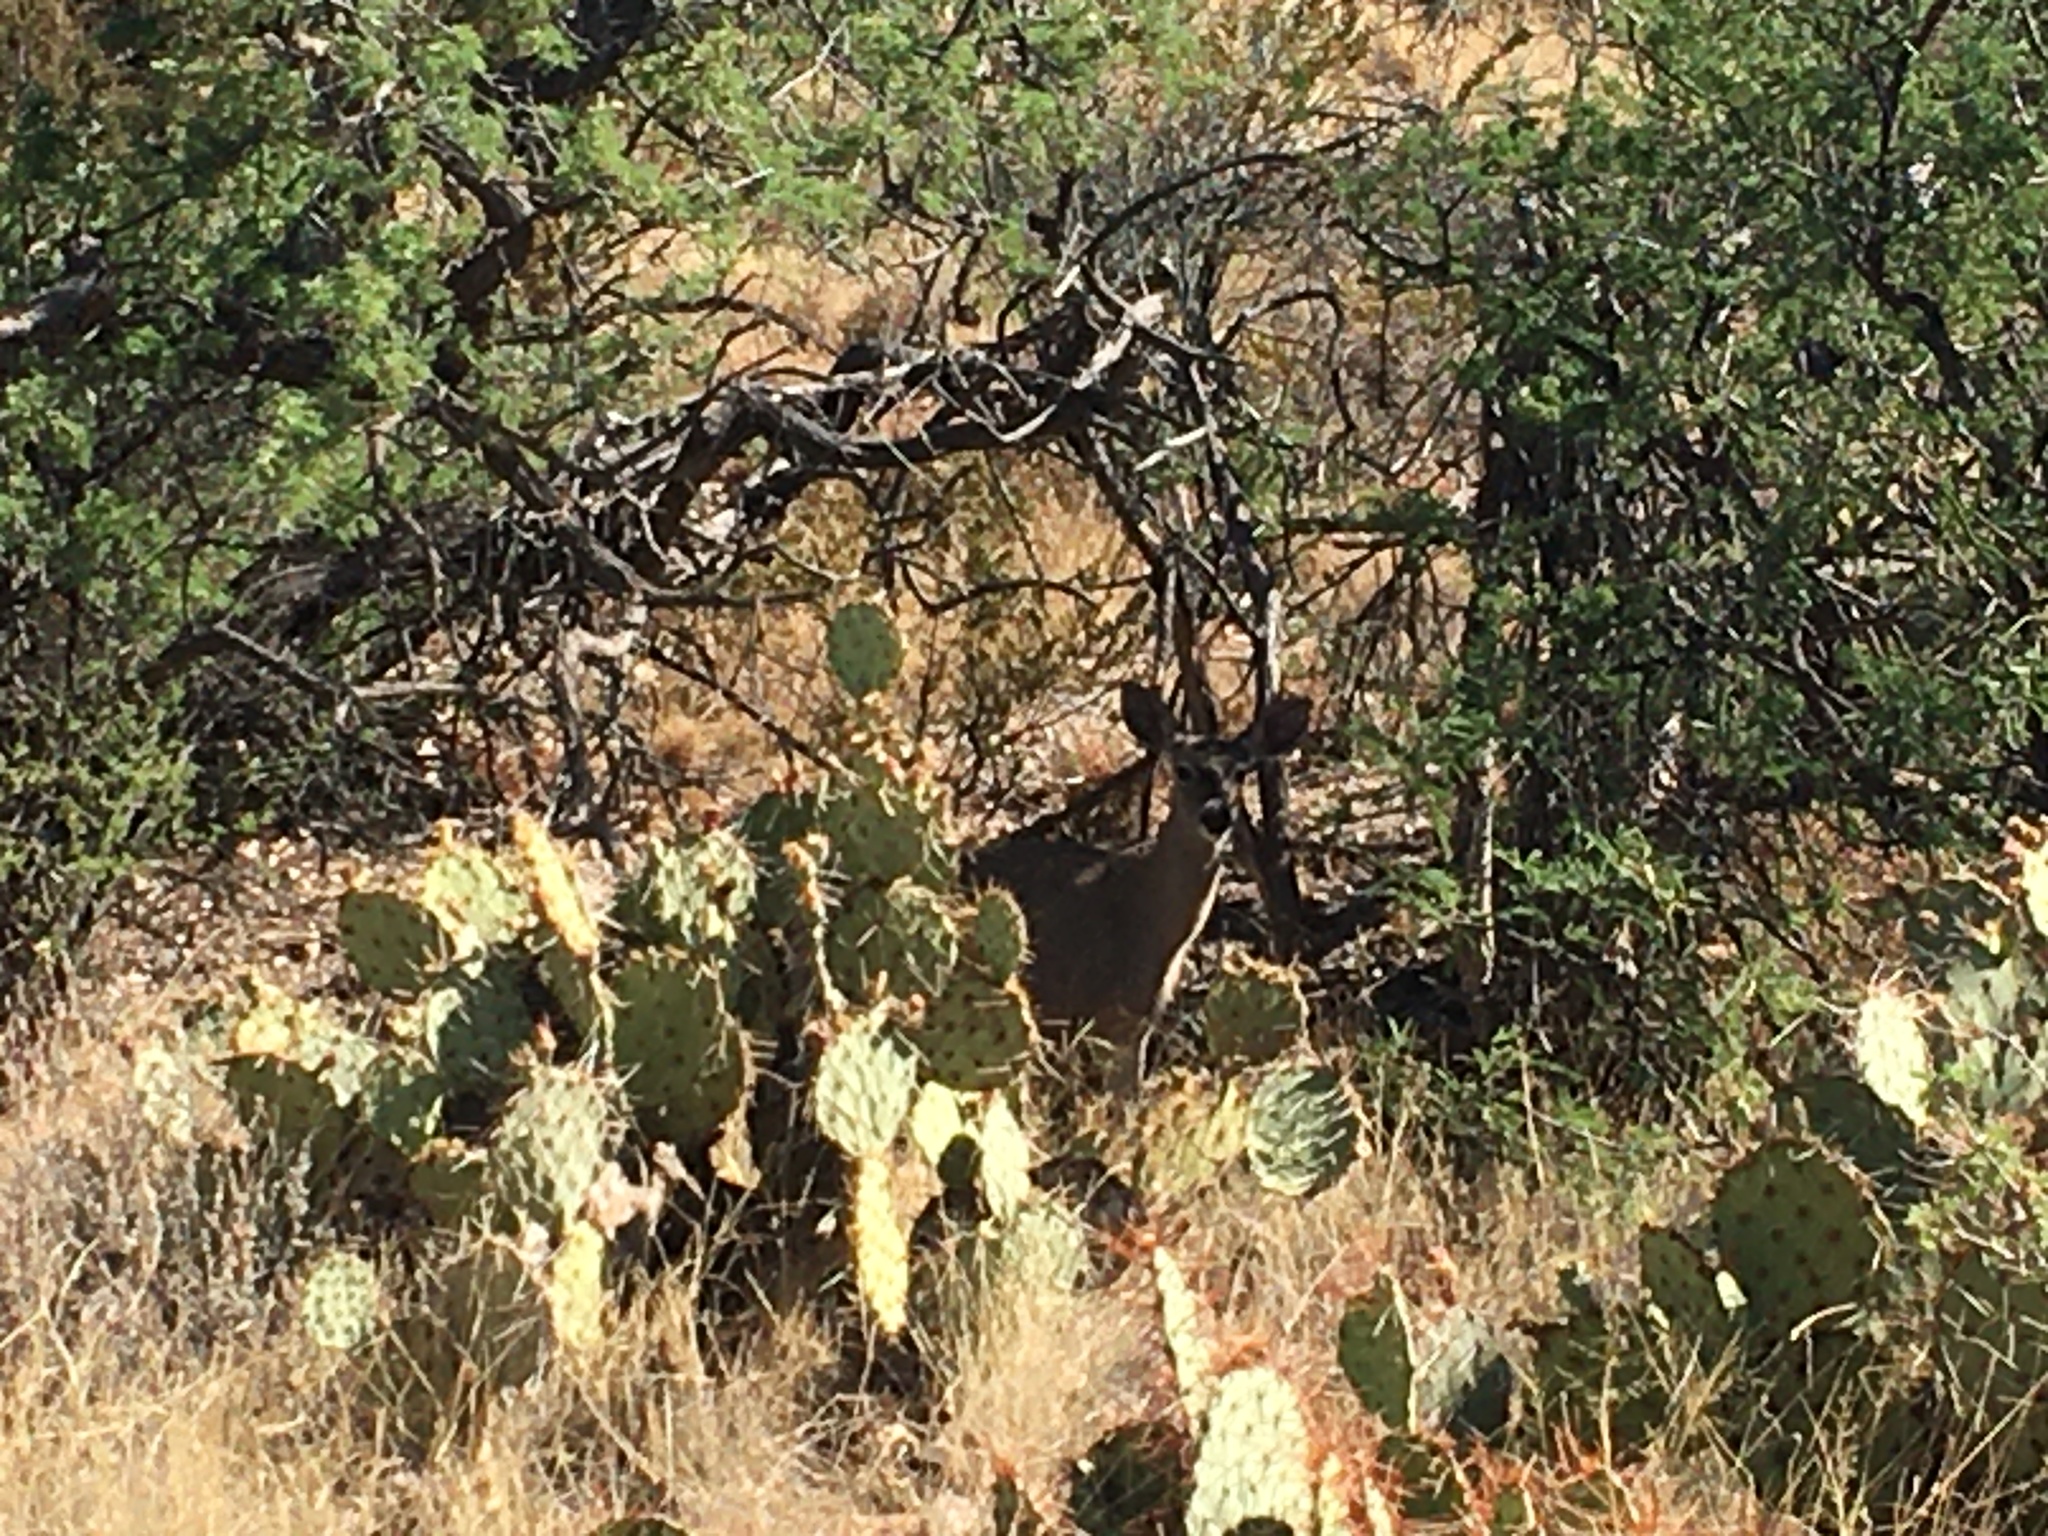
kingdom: Animalia
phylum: Chordata
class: Mammalia
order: Artiodactyla
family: Cervidae
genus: Odocoileus
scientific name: Odocoileus virginianus
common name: White-tailed deer
